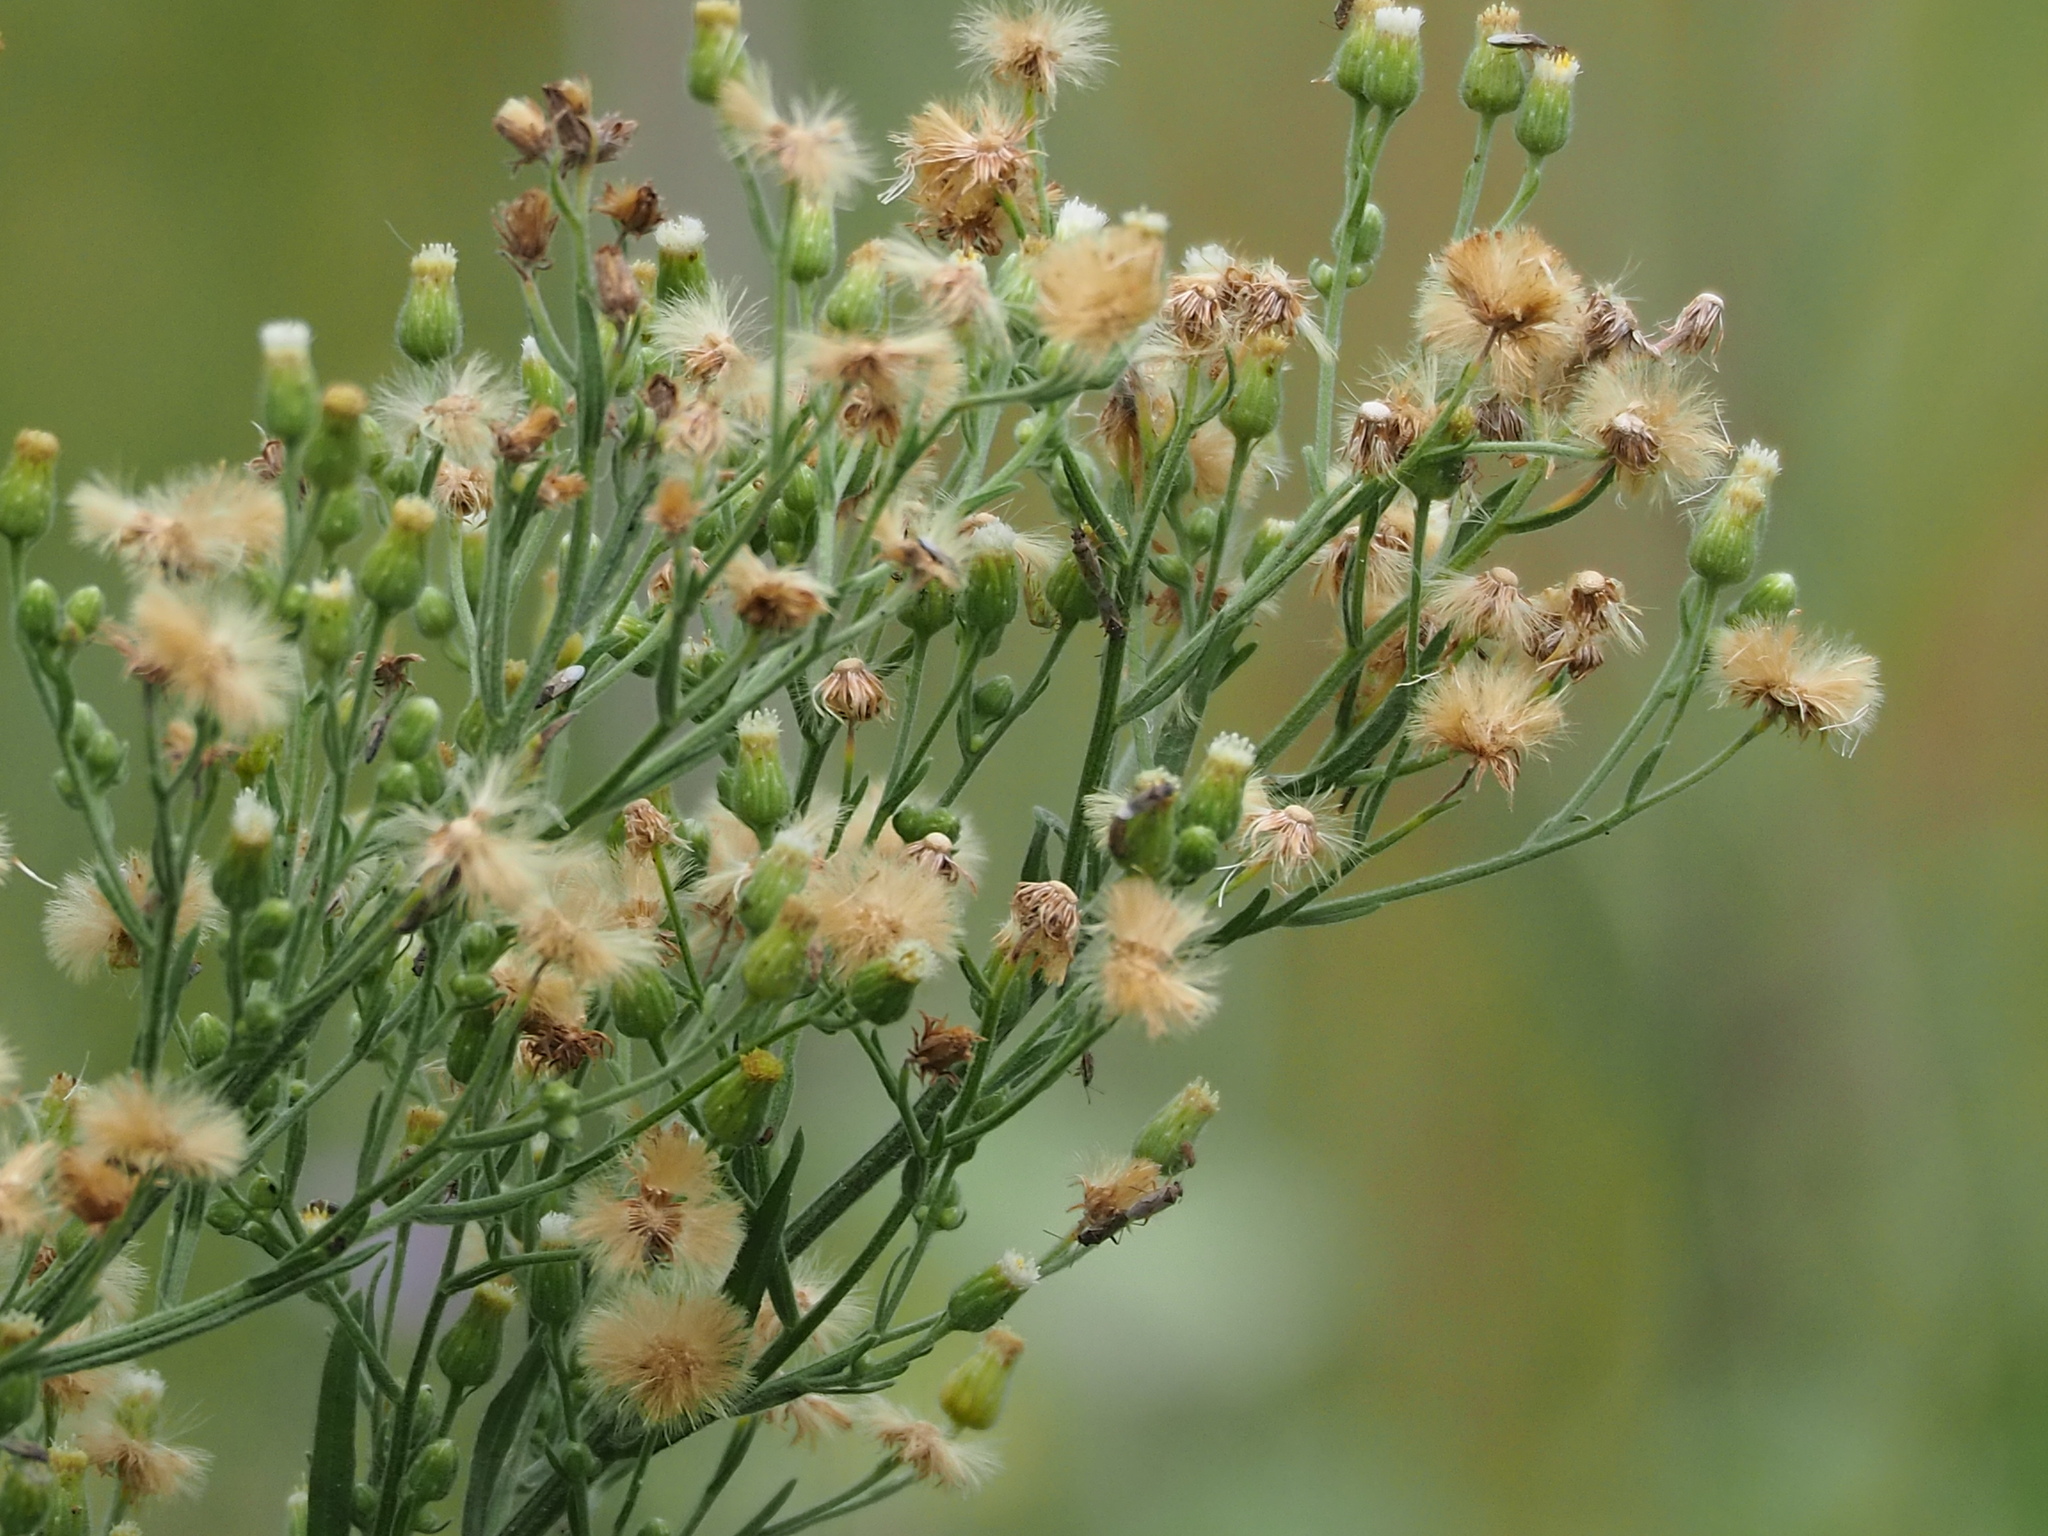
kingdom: Plantae
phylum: Tracheophyta
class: Magnoliopsida
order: Asterales
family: Asteraceae
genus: Erigeron
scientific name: Erigeron sumatrensis
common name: Daisy
